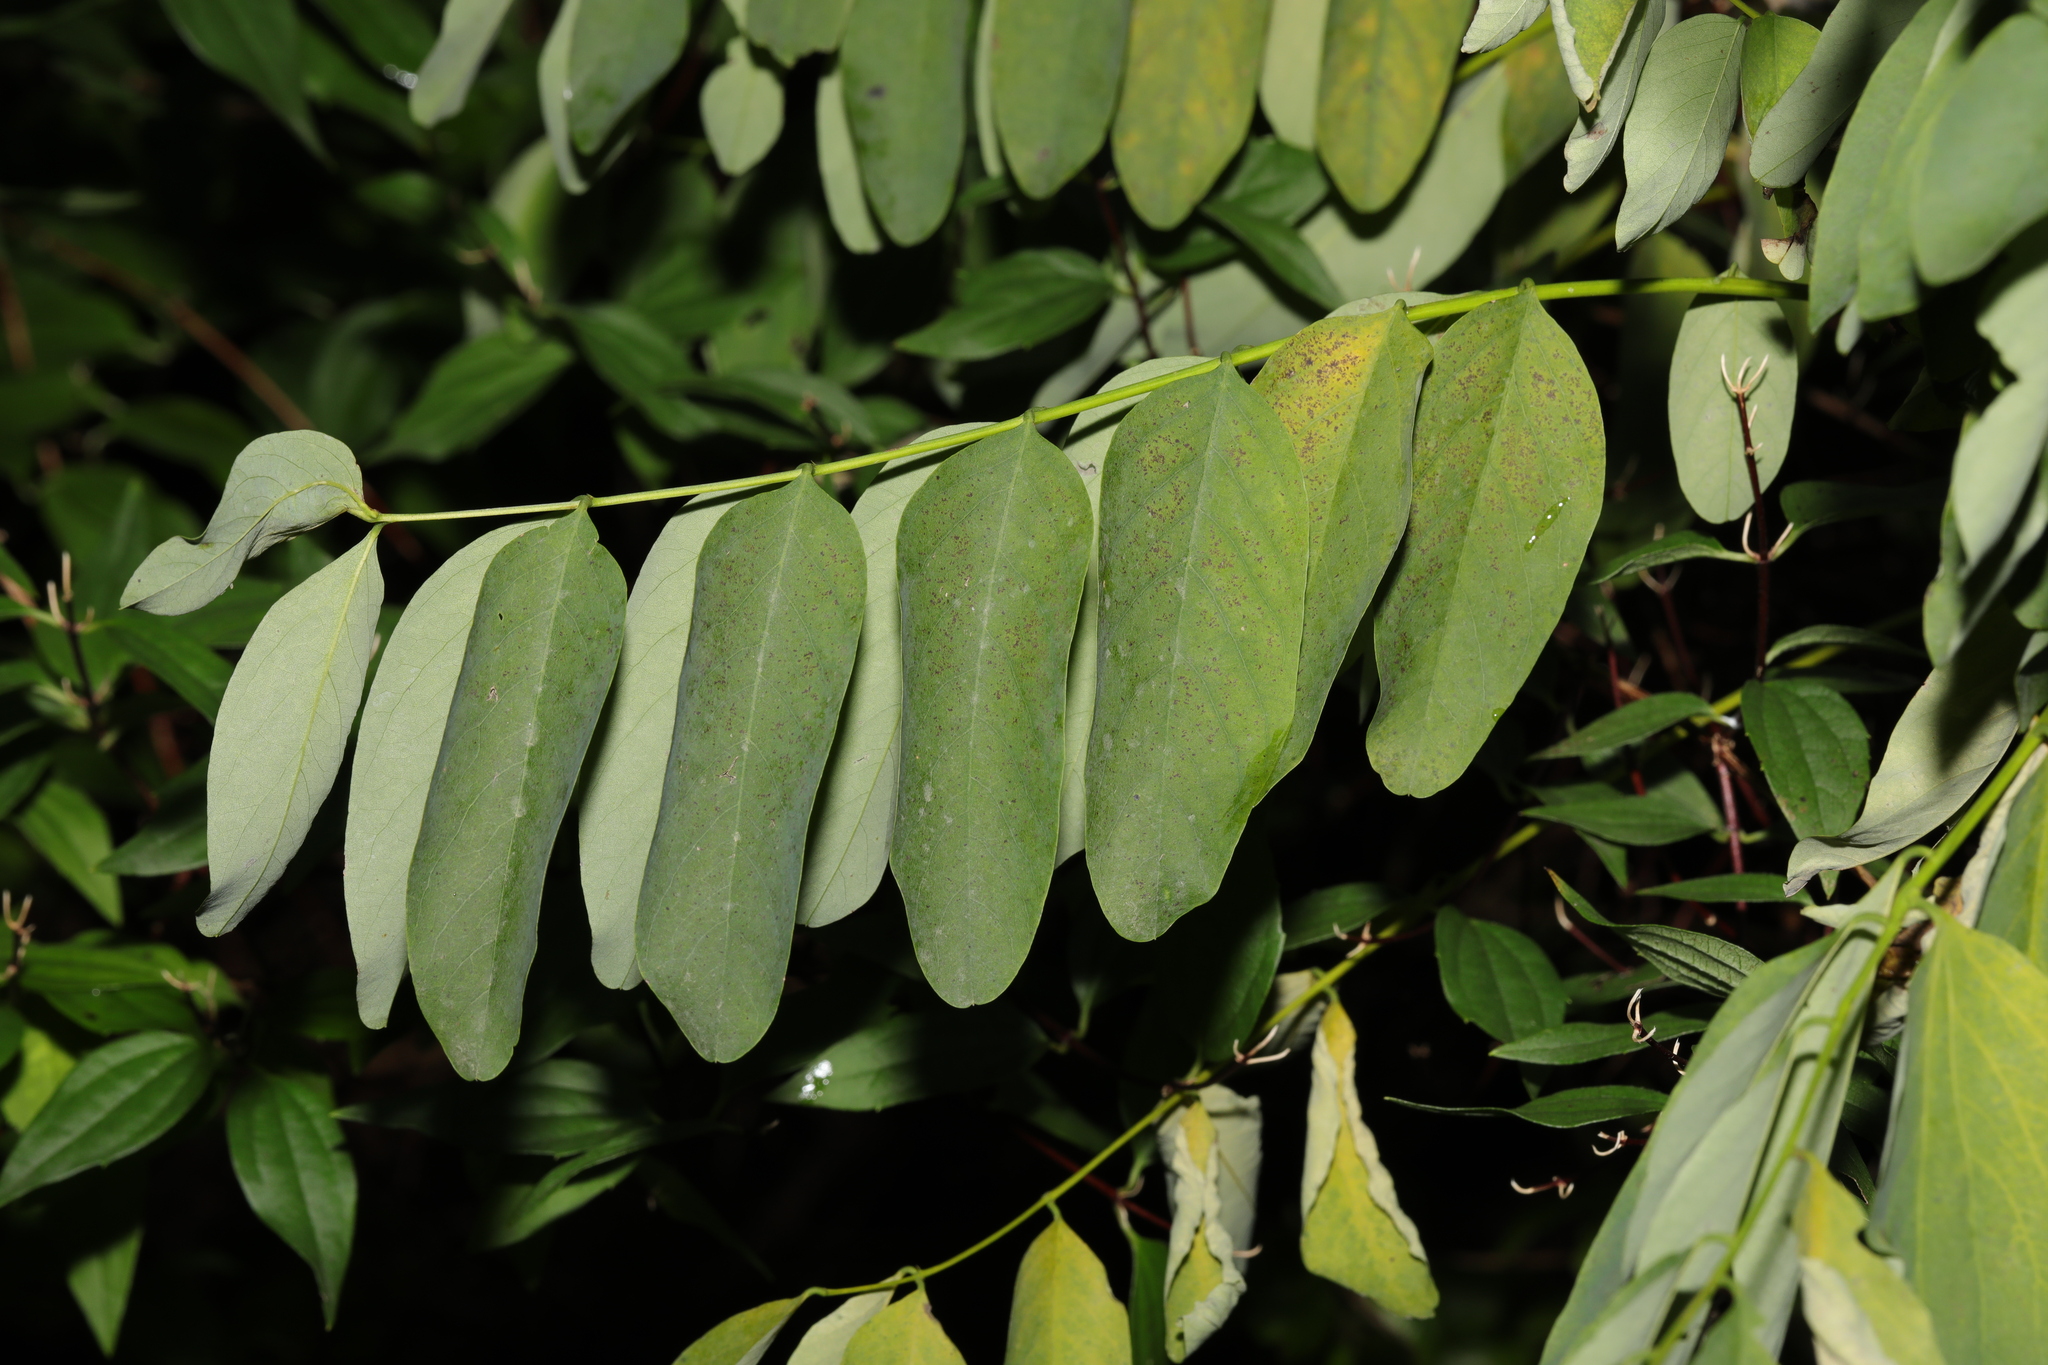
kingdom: Plantae
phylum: Tracheophyta
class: Magnoliopsida
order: Fabales
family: Fabaceae
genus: Robinia
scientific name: Robinia pseudoacacia
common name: Black locust
